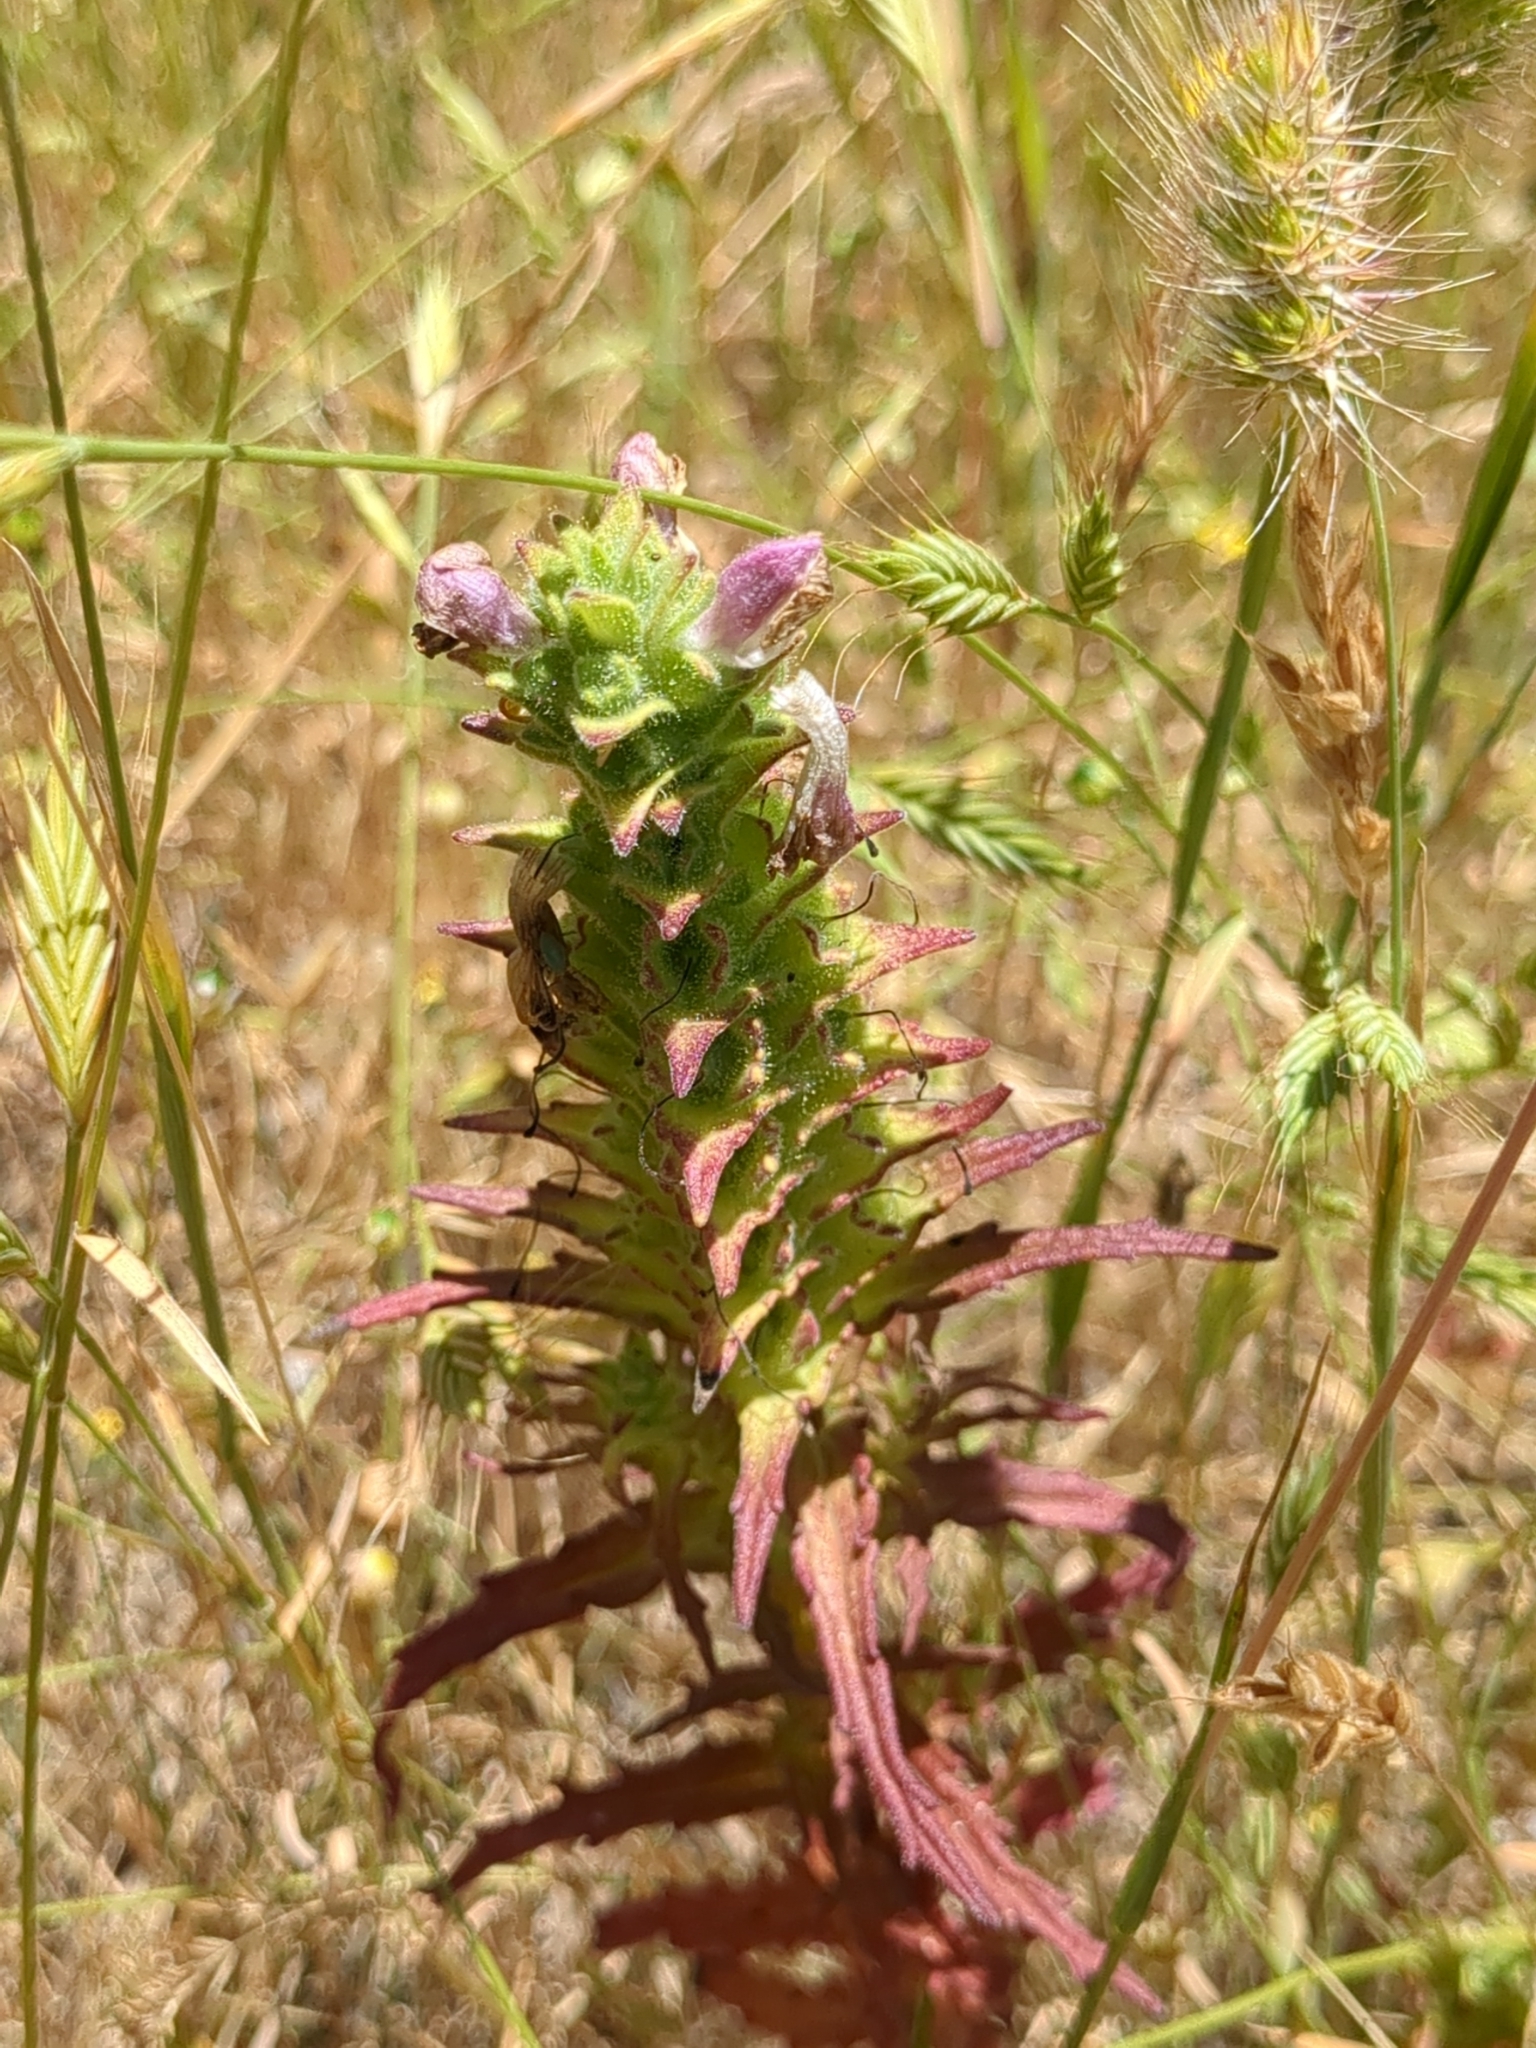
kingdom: Plantae
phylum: Tracheophyta
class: Magnoliopsida
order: Lamiales
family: Orobanchaceae
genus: Bellardia
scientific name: Bellardia trixago
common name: Mediterranean lineseed
